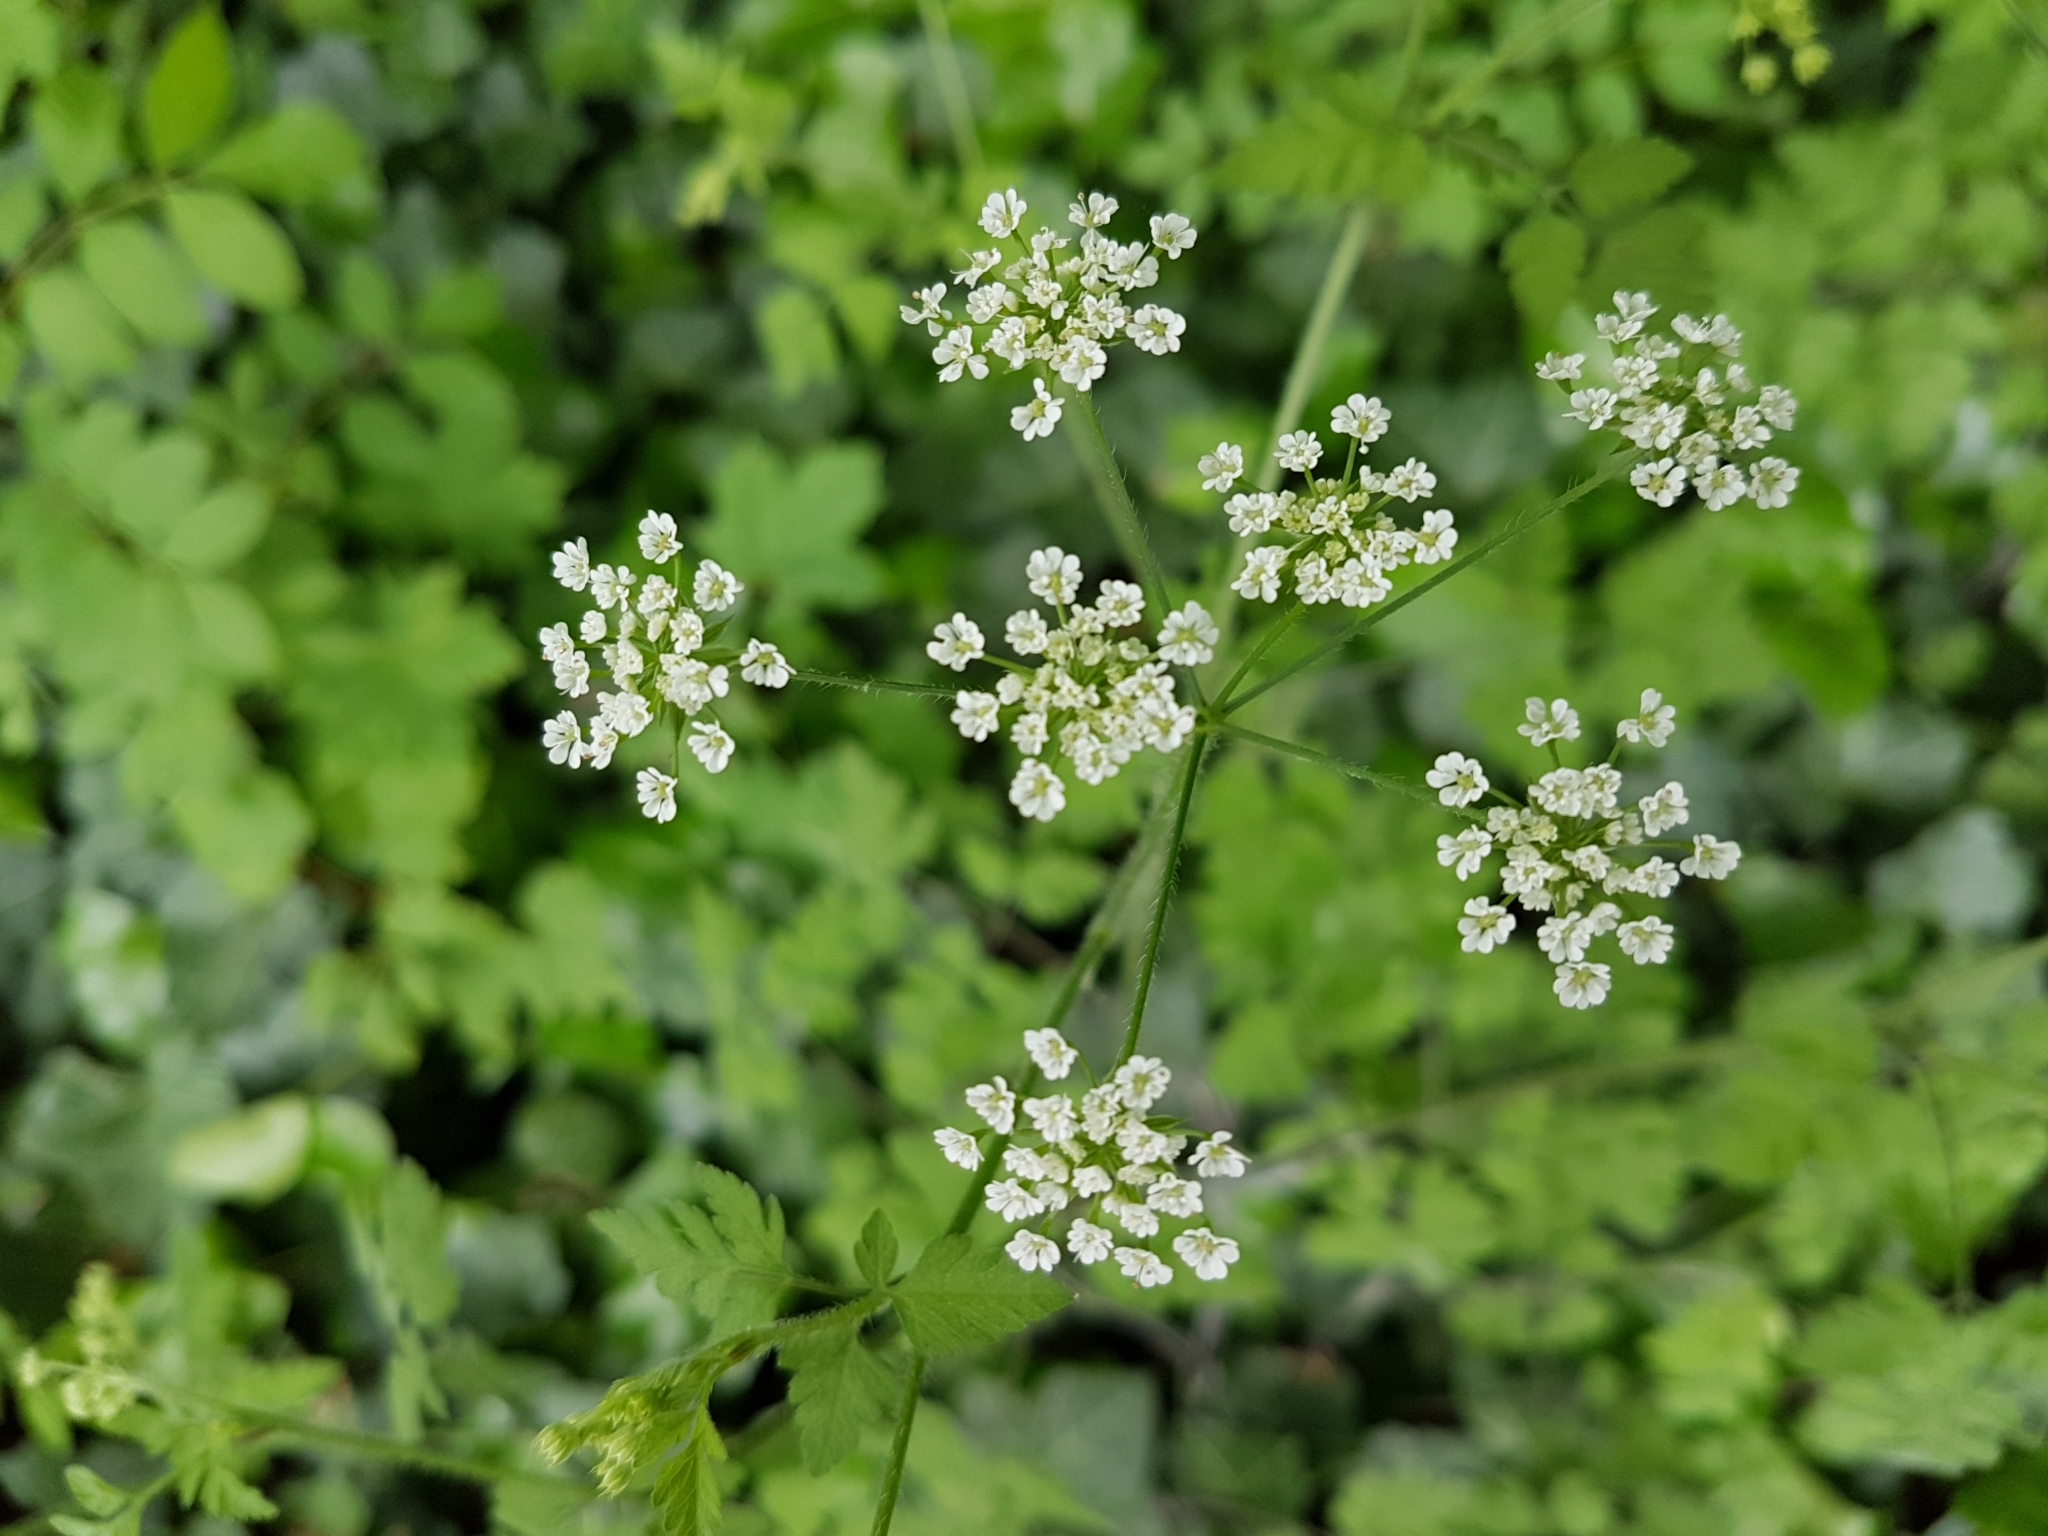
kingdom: Plantae
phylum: Tracheophyta
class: Magnoliopsida
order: Apiales
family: Apiaceae
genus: Chaerophyllum
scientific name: Chaerophyllum temulum
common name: Rough chervil
